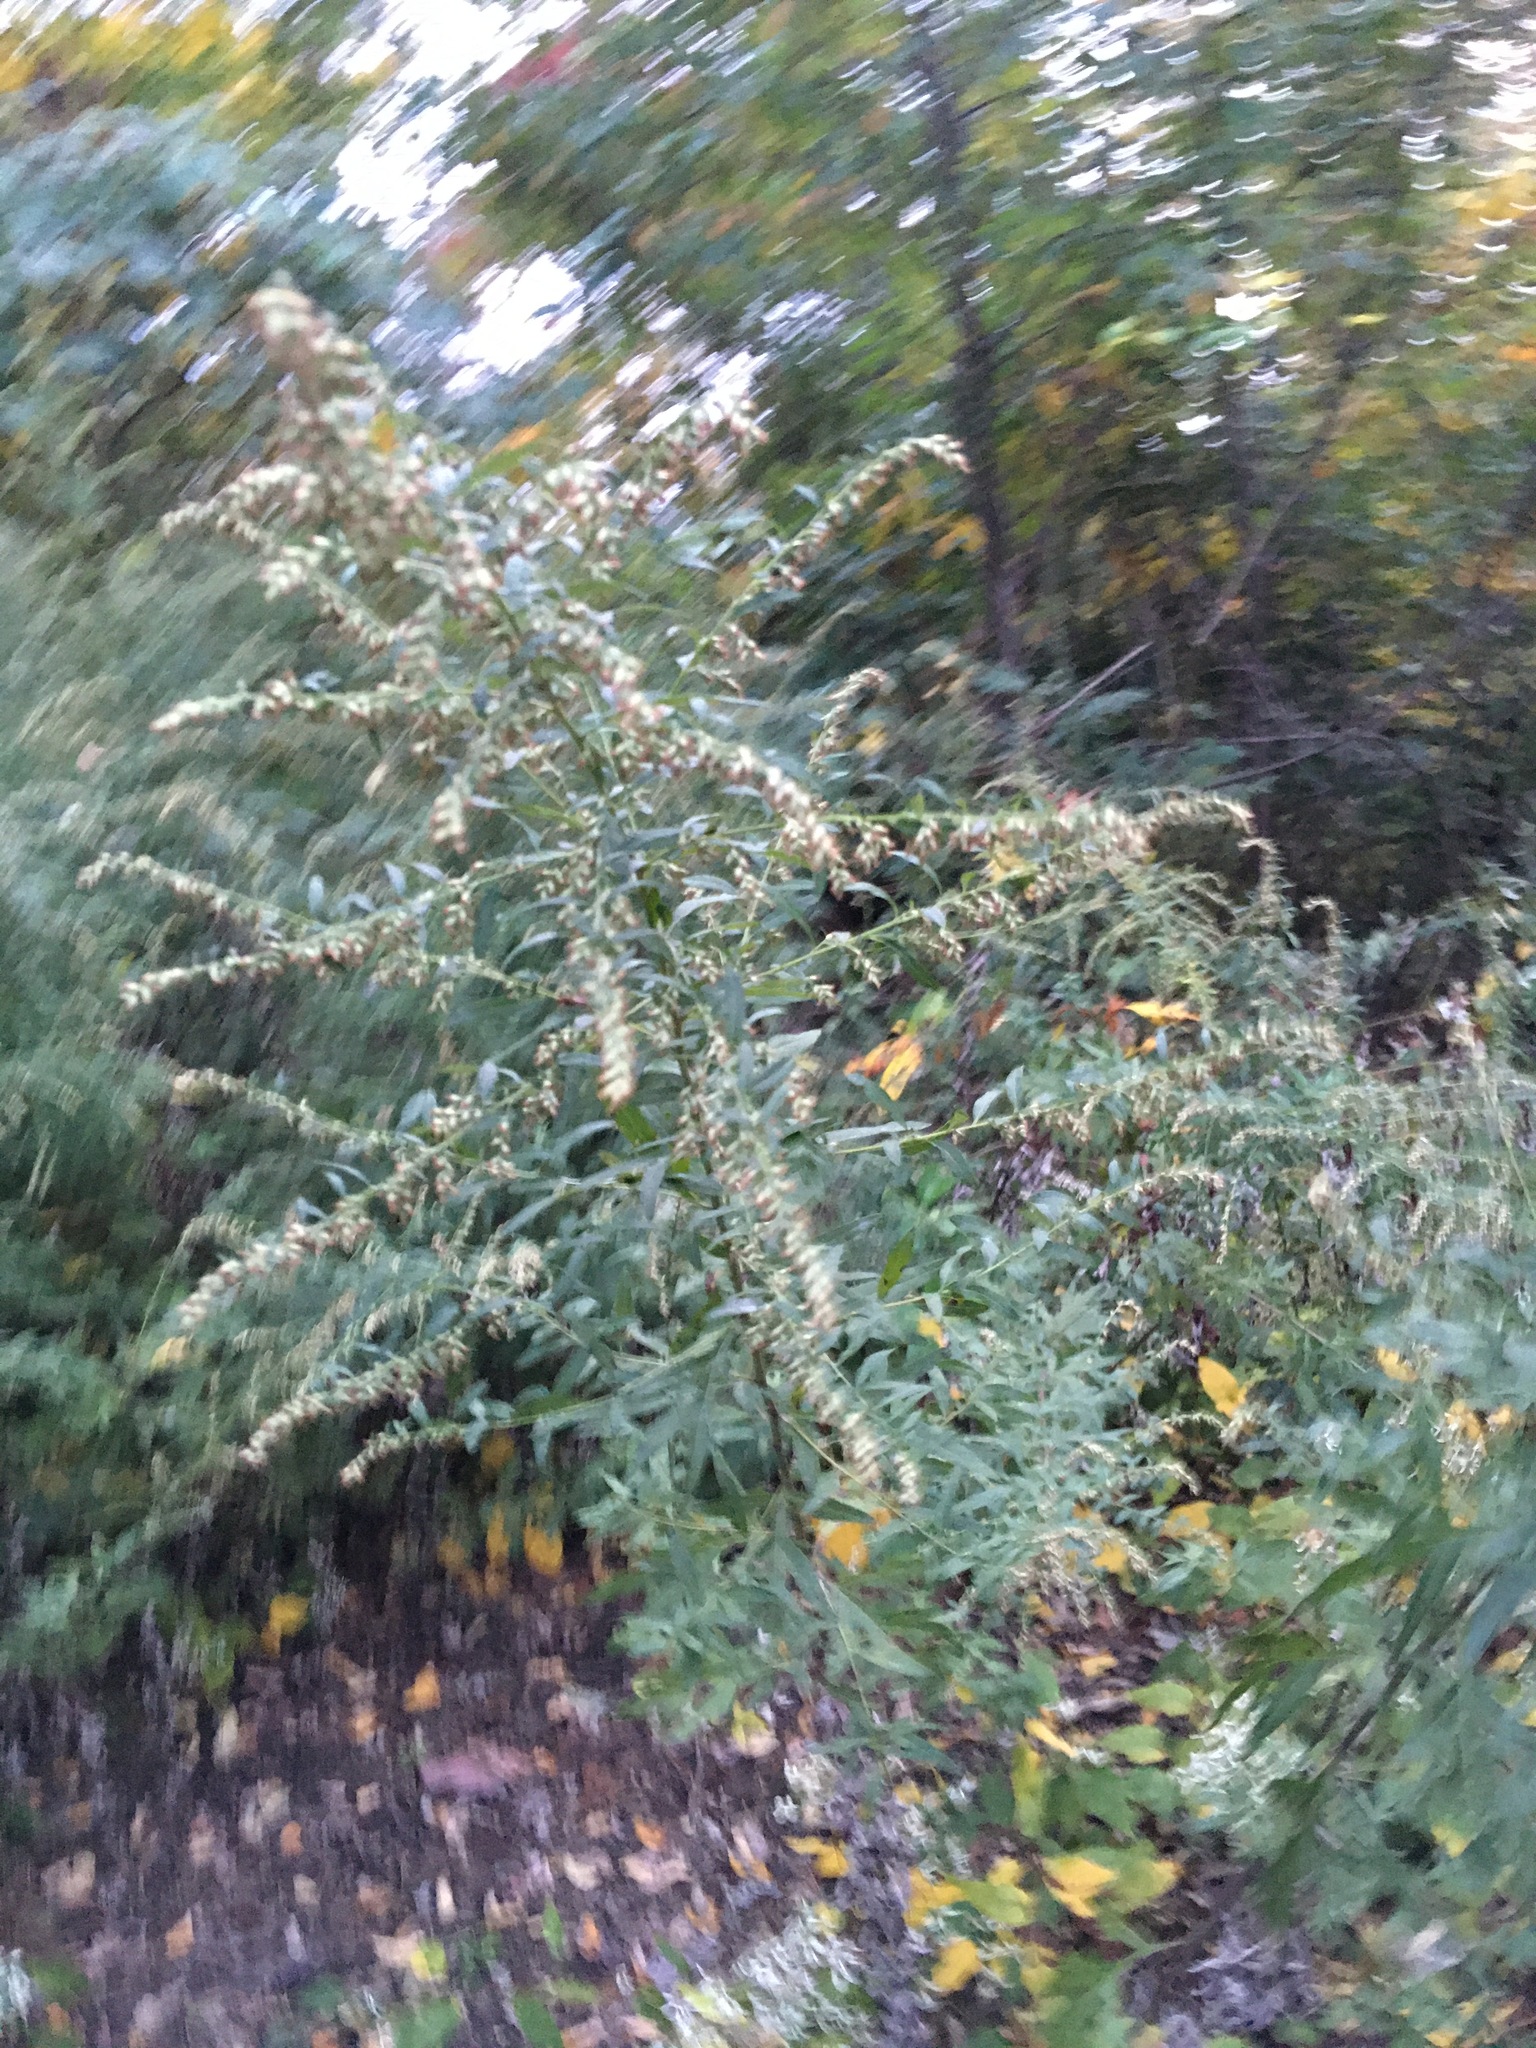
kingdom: Plantae
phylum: Tracheophyta
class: Magnoliopsida
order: Asterales
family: Asteraceae
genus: Artemisia
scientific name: Artemisia vulgaris
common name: Mugwort
